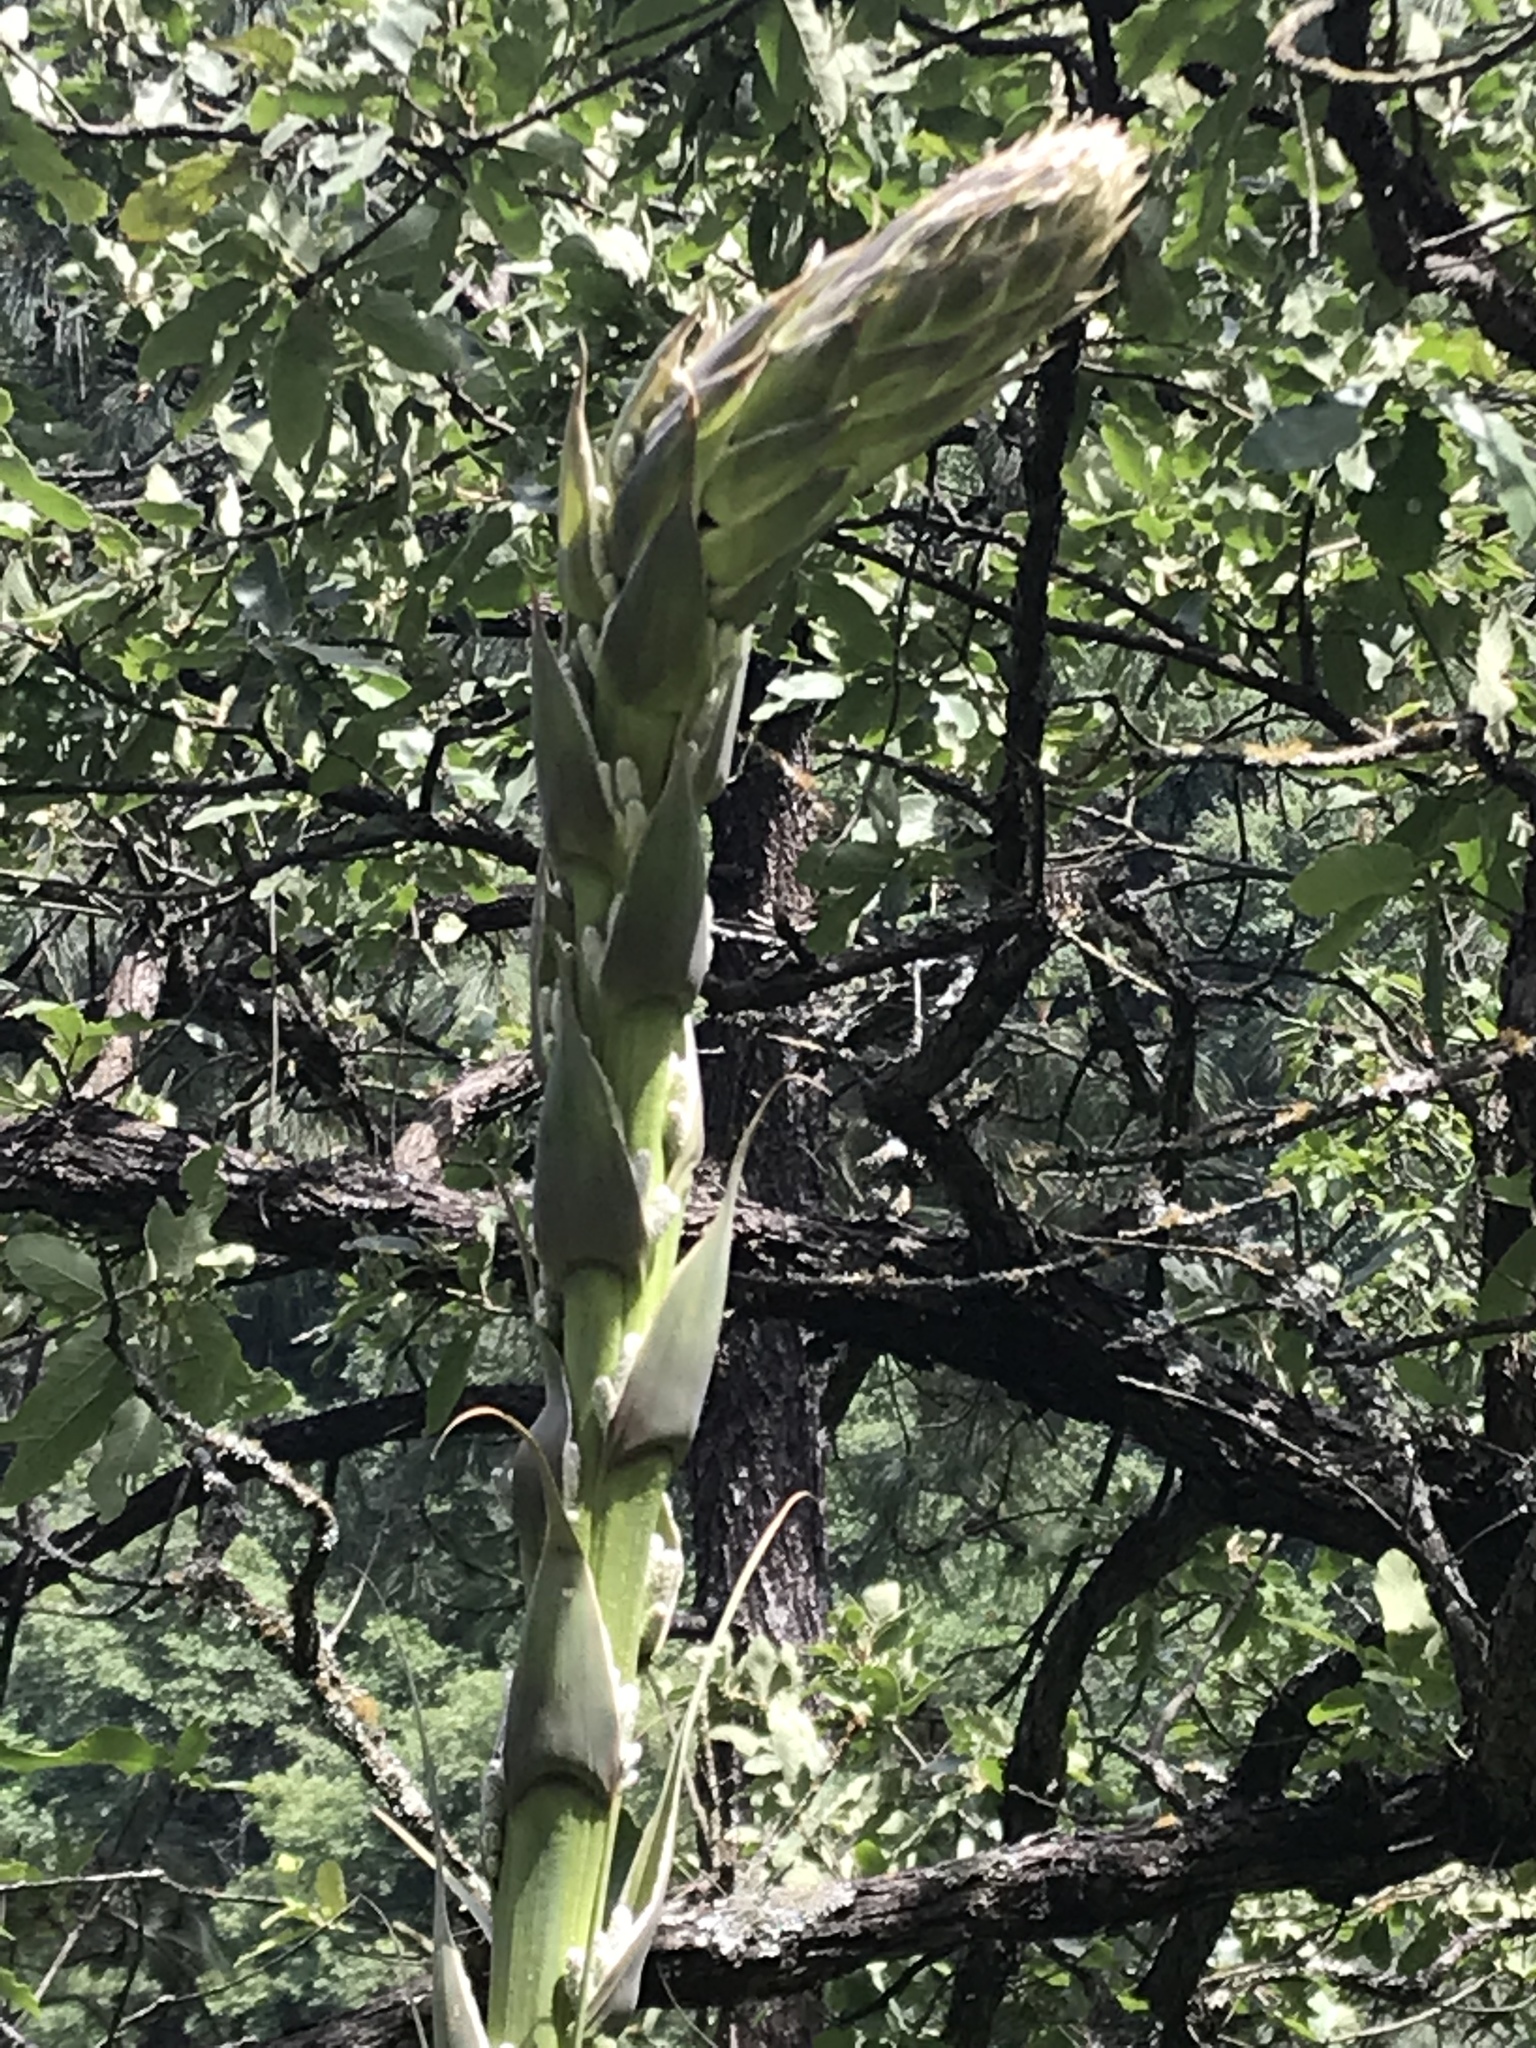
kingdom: Plantae
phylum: Tracheophyta
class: Liliopsida
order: Asparagales
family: Asparagaceae
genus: Dasylirion
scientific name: Dasylirion wheeleri
